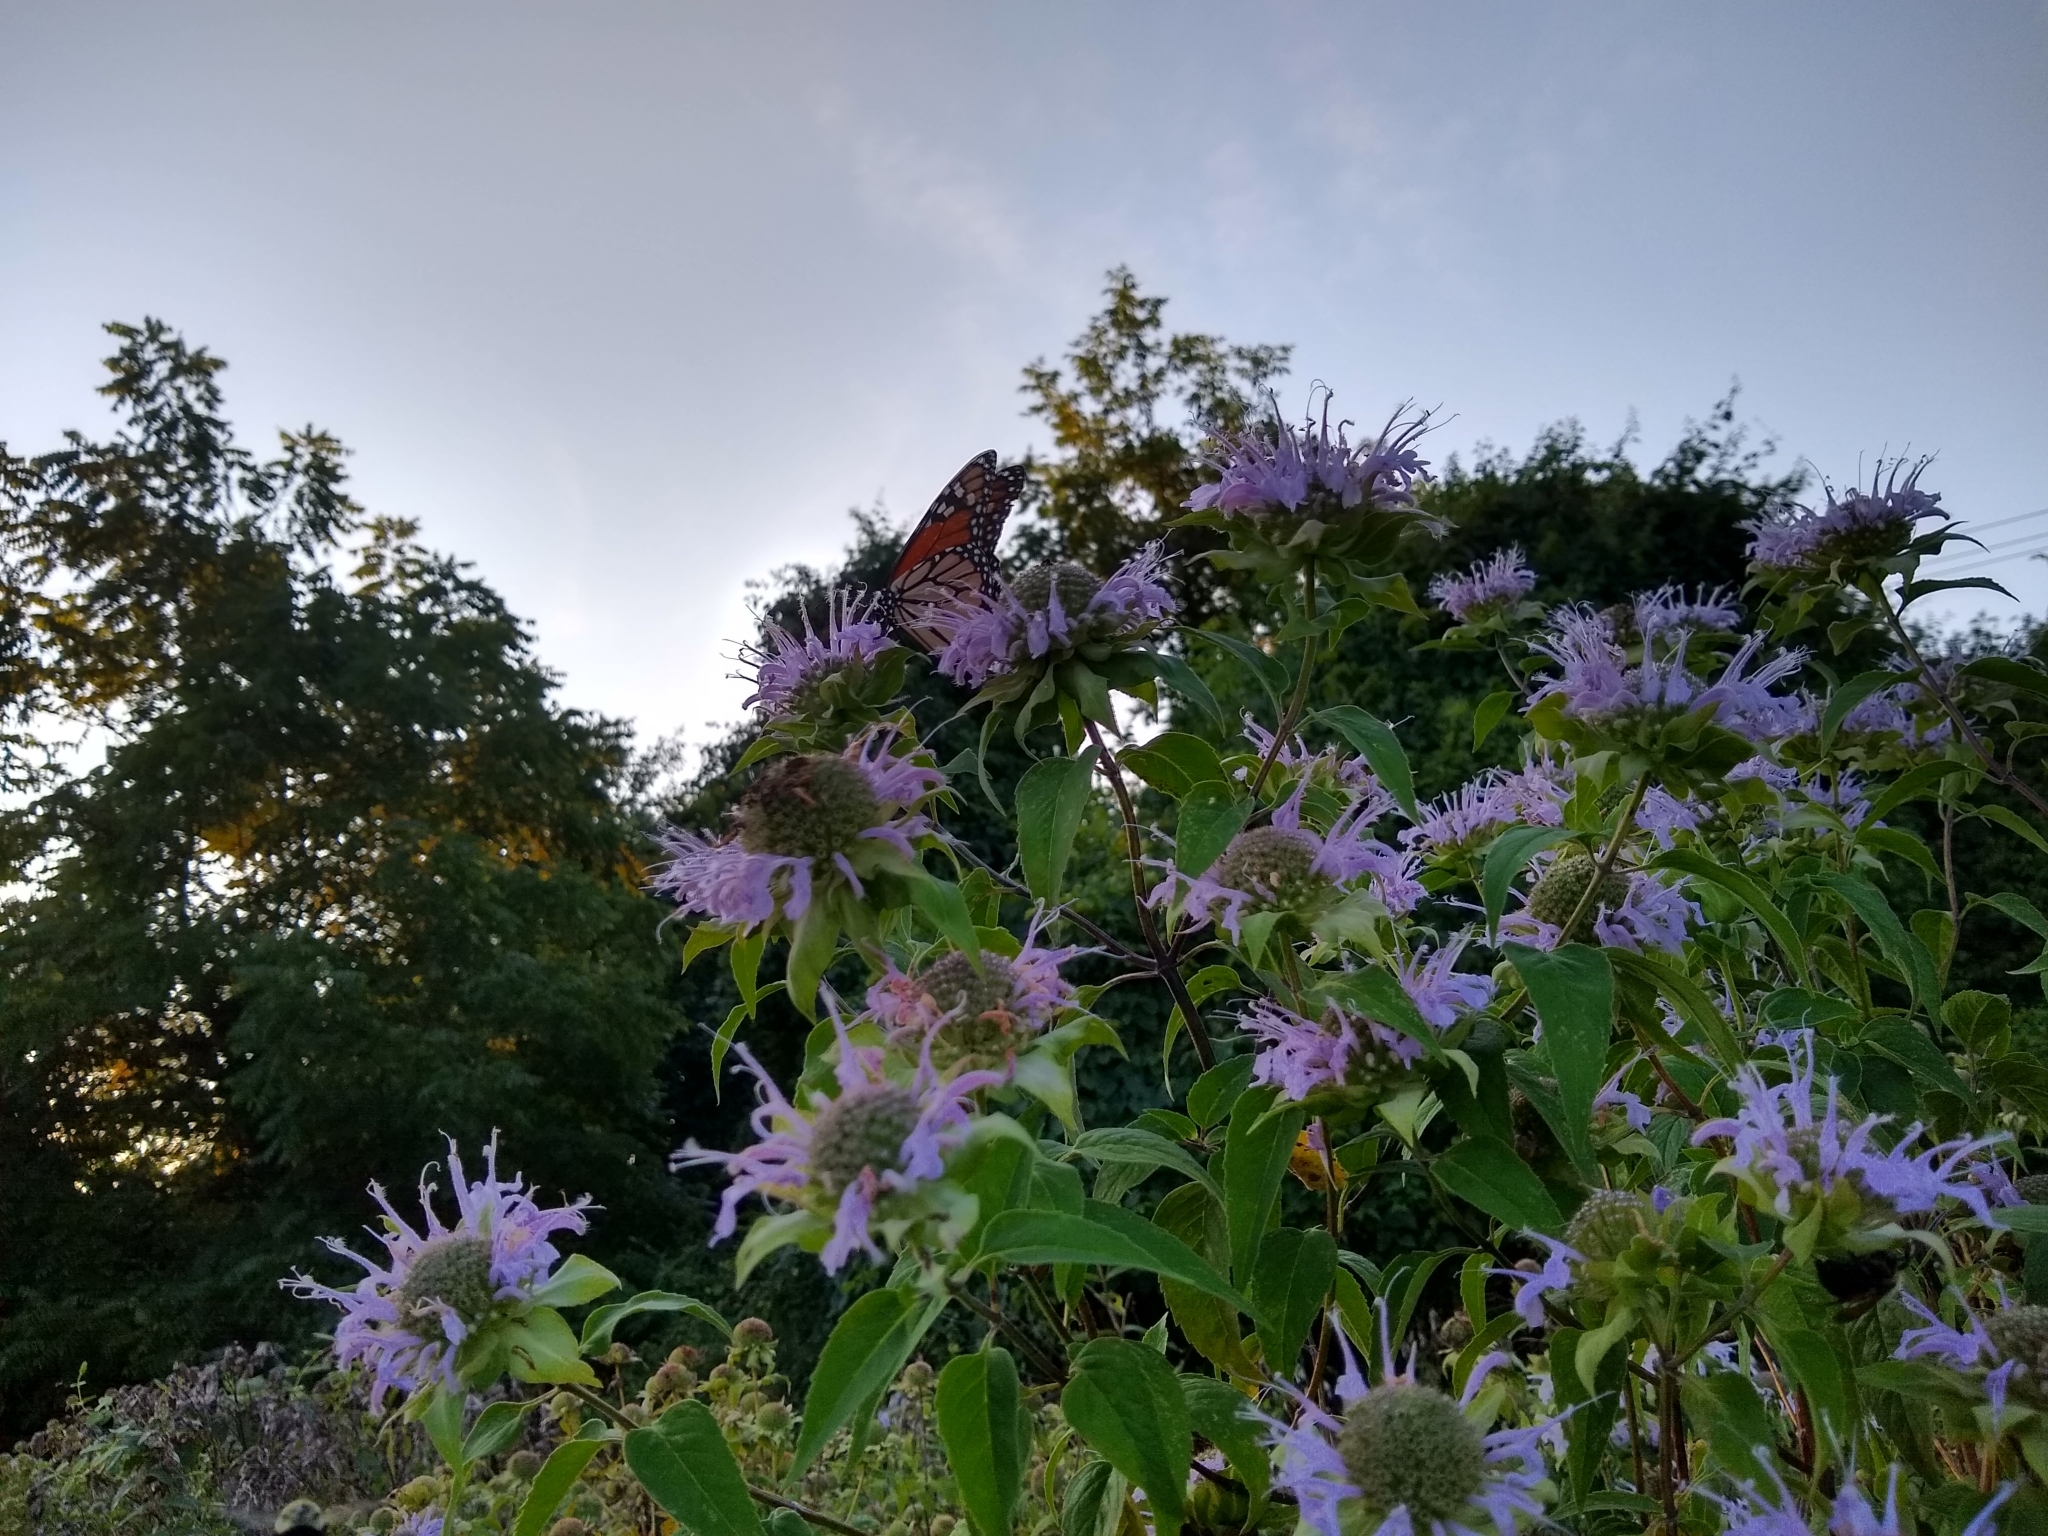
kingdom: Animalia
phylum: Arthropoda
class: Insecta
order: Lepidoptera
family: Nymphalidae
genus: Danaus
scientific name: Danaus plexippus
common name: Monarch
